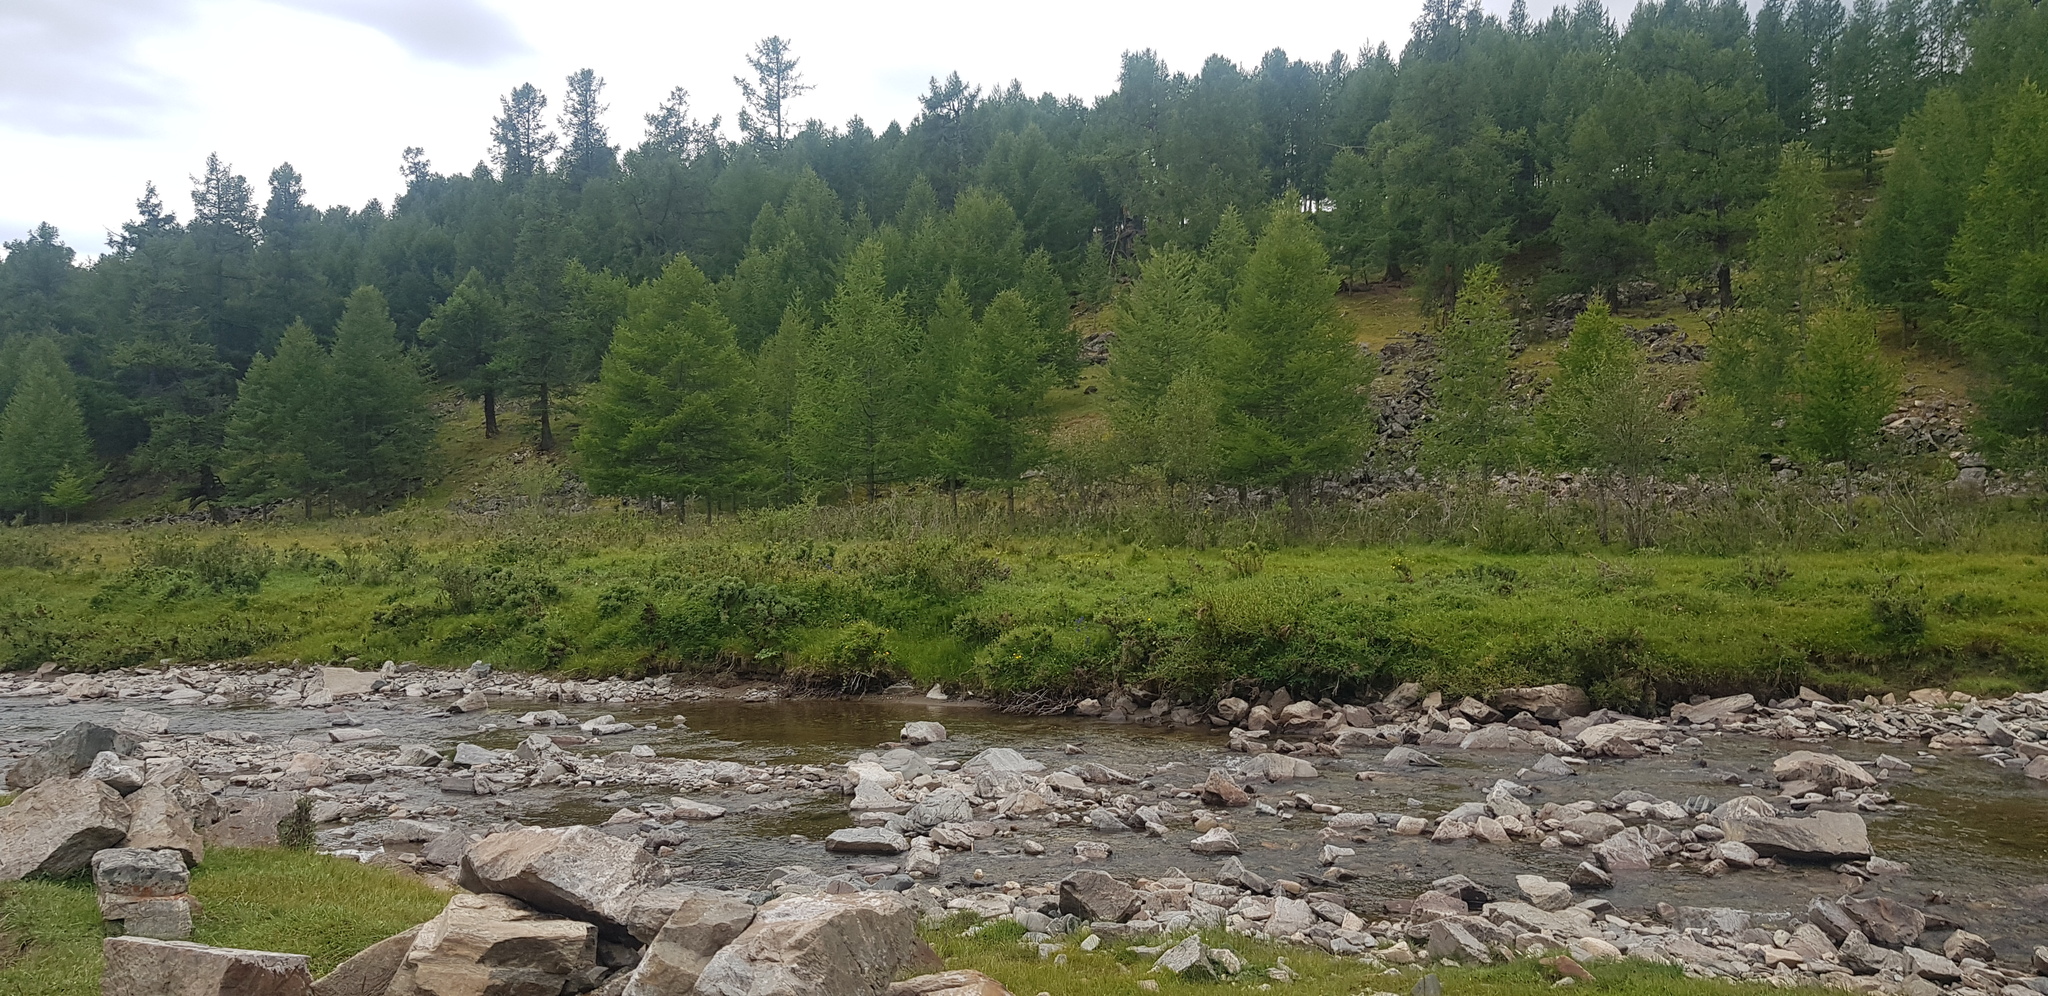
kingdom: Plantae
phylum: Tracheophyta
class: Pinopsida
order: Pinales
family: Pinaceae
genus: Larix
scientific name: Larix sibirica
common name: Siberian larch
